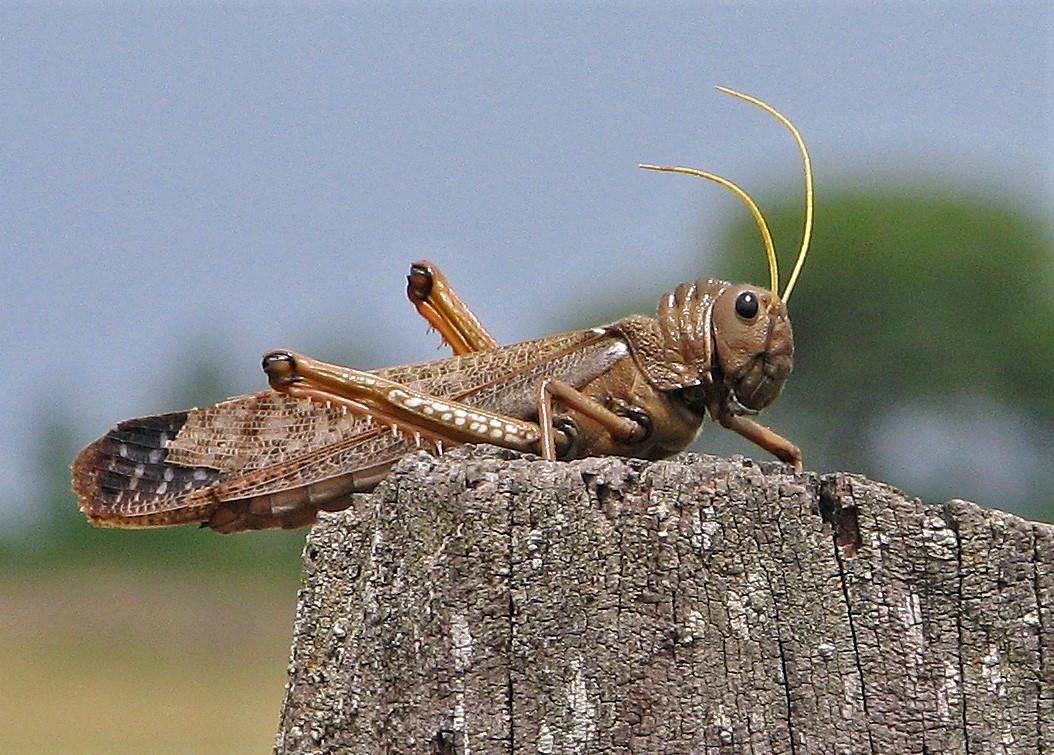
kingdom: Animalia
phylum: Arthropoda
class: Insecta
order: Orthoptera
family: Romaleidae
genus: Tropidacris
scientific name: Tropidacris collaris
